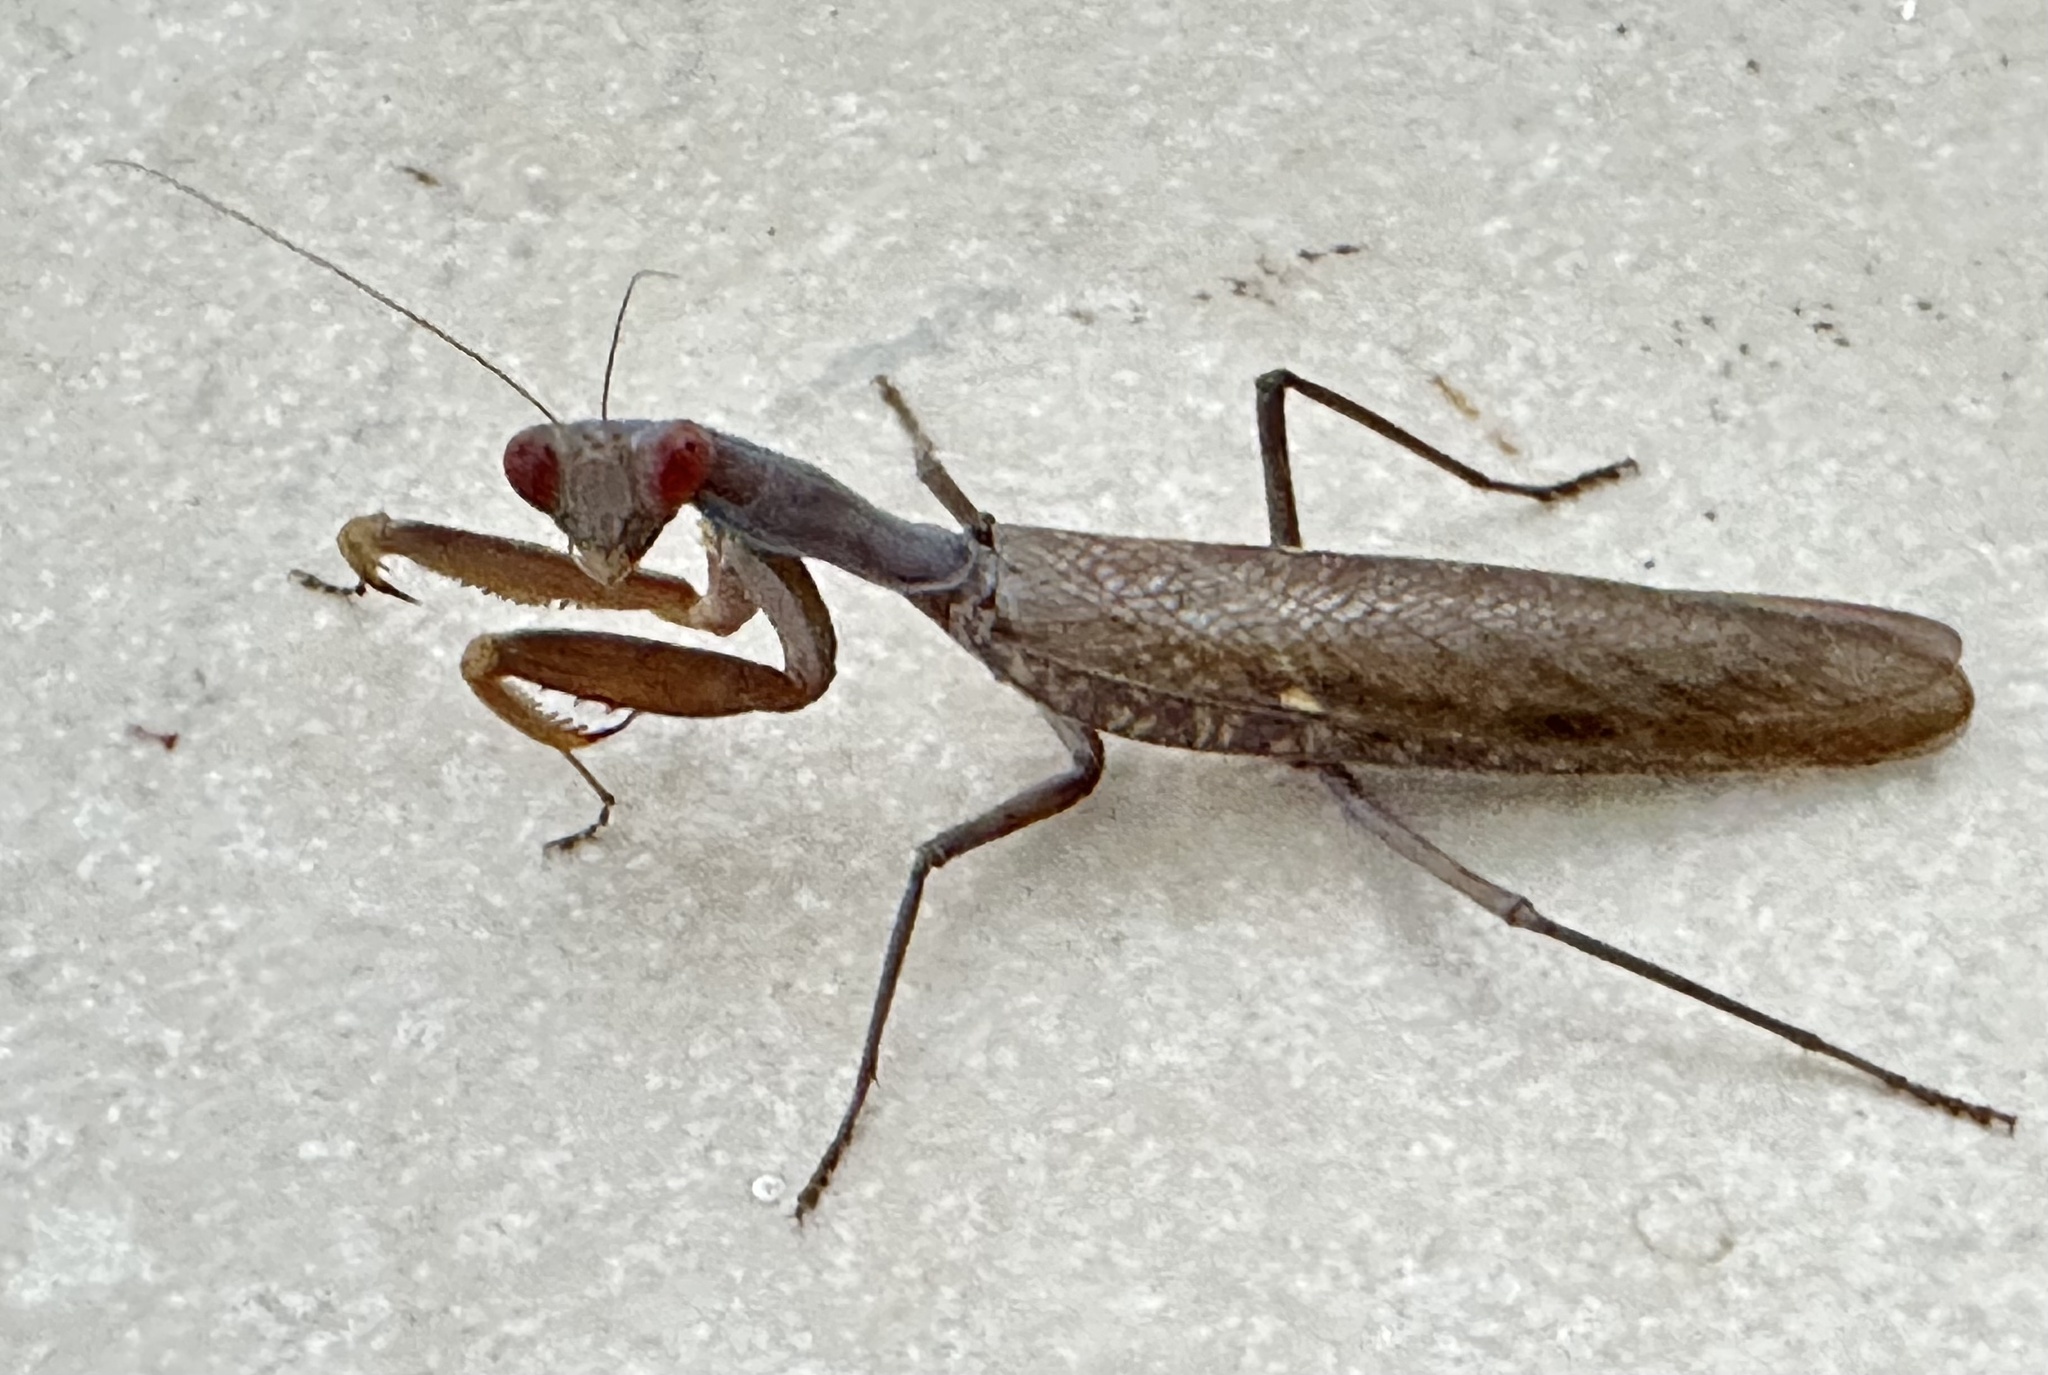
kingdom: Animalia
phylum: Arthropoda
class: Insecta
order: Mantodea
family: Mantidae
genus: Hierodula
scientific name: Hierodula patellifera
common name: Asian mantis
